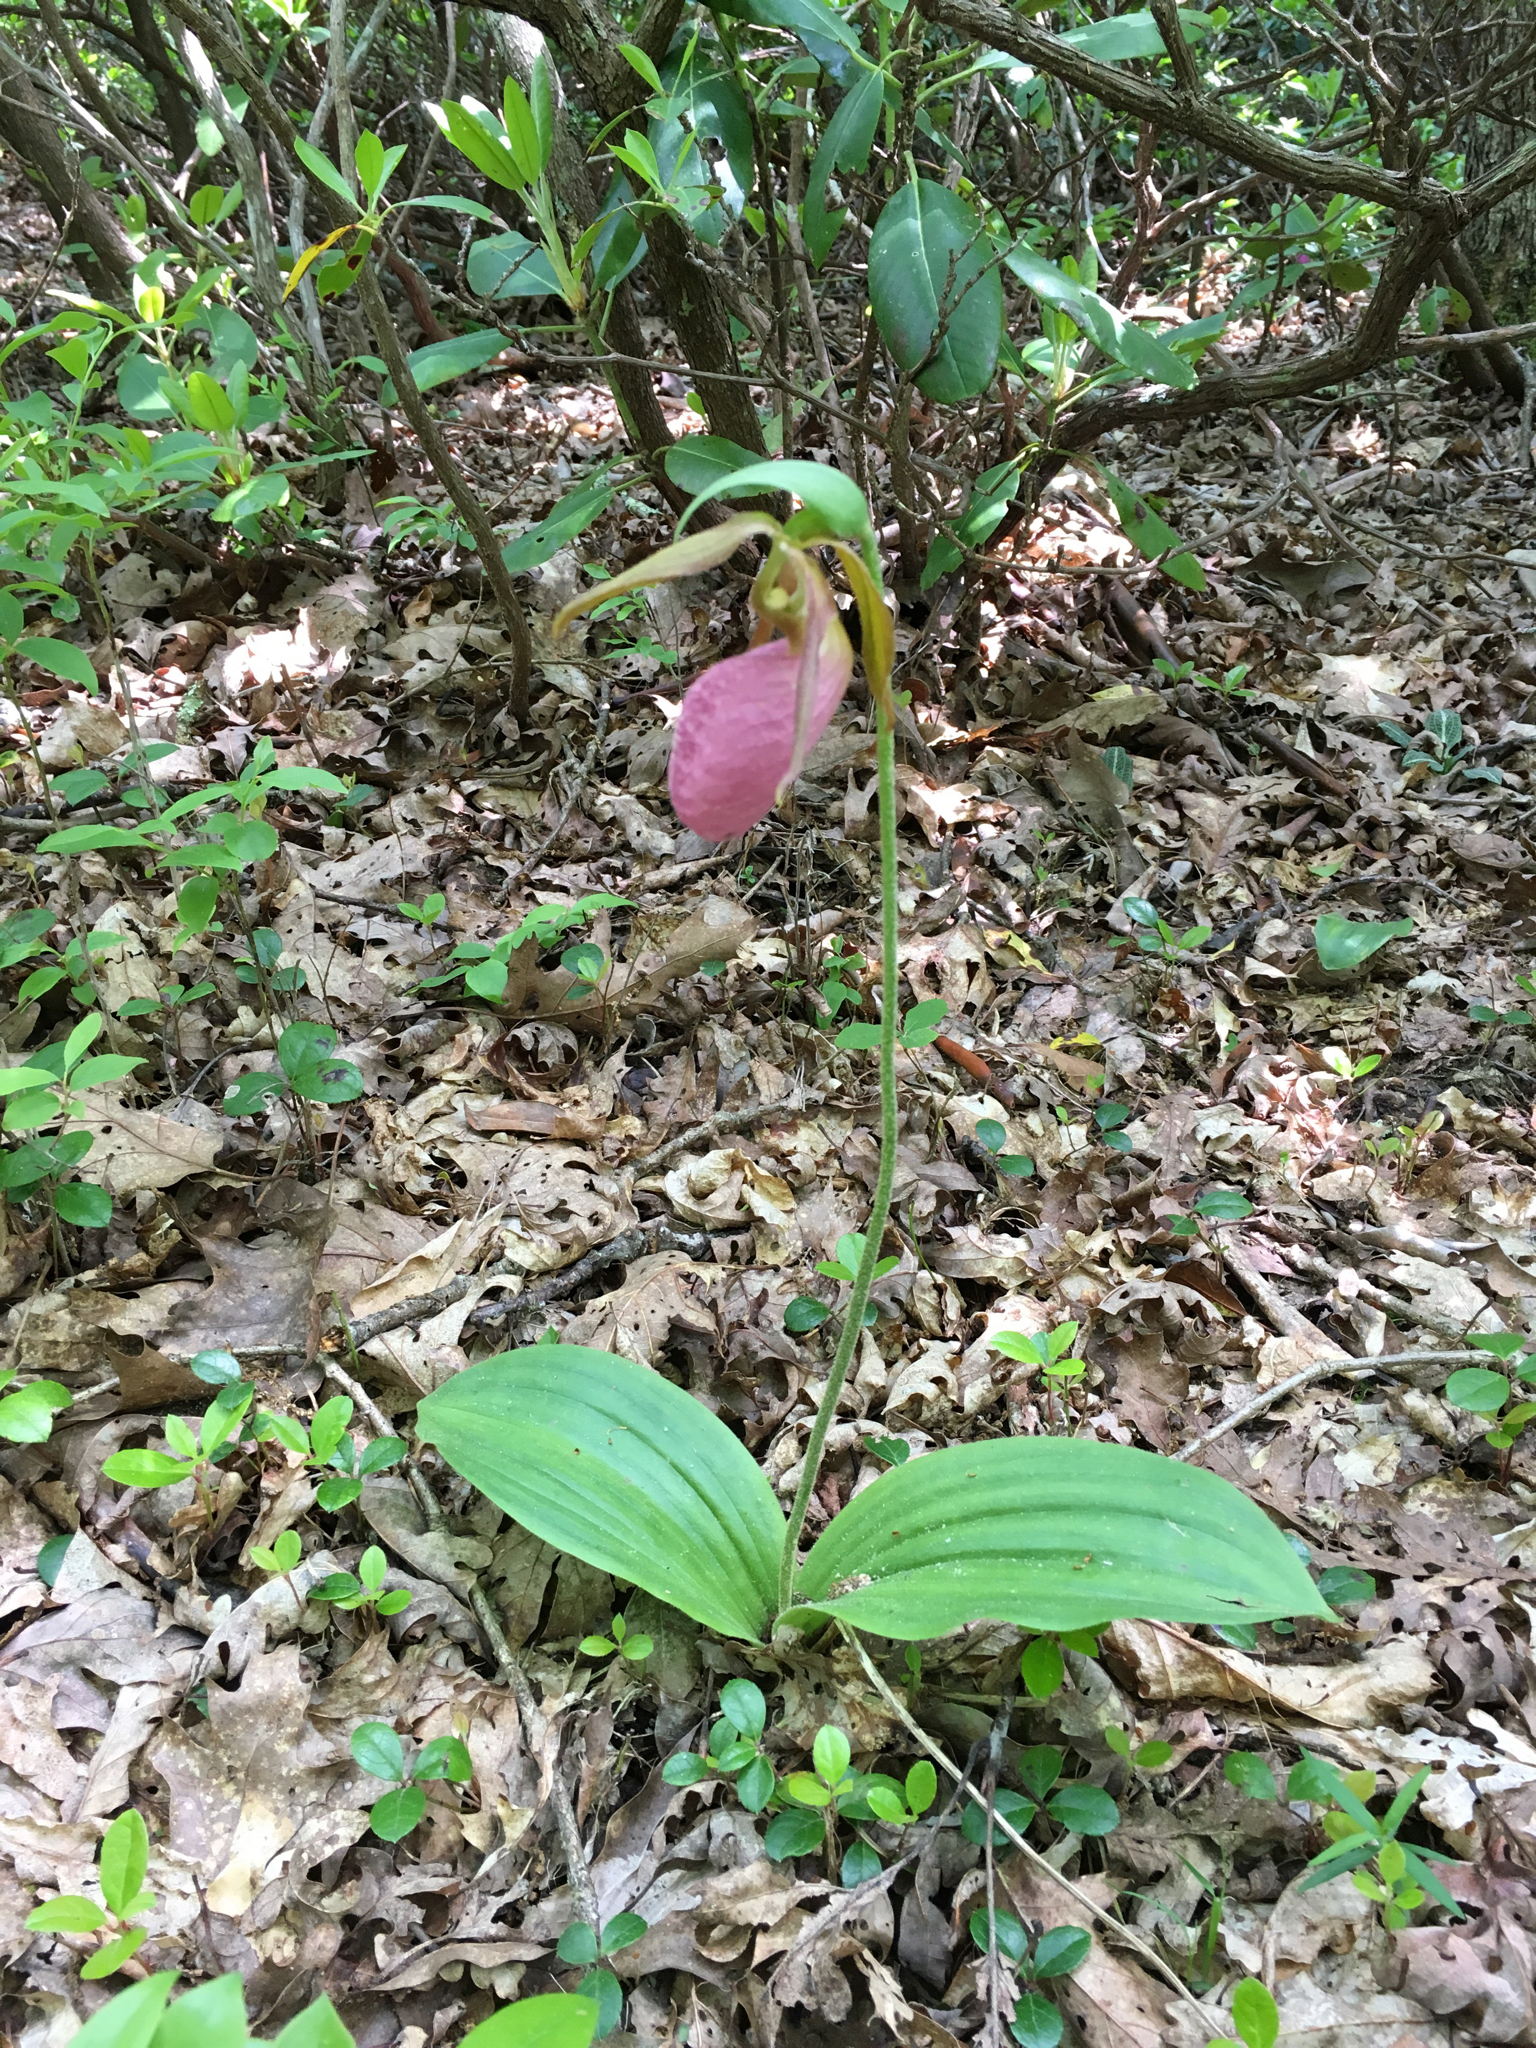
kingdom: Plantae
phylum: Tracheophyta
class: Liliopsida
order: Asparagales
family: Orchidaceae
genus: Cypripedium
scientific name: Cypripedium acaule
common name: Pink lady's-slipper
